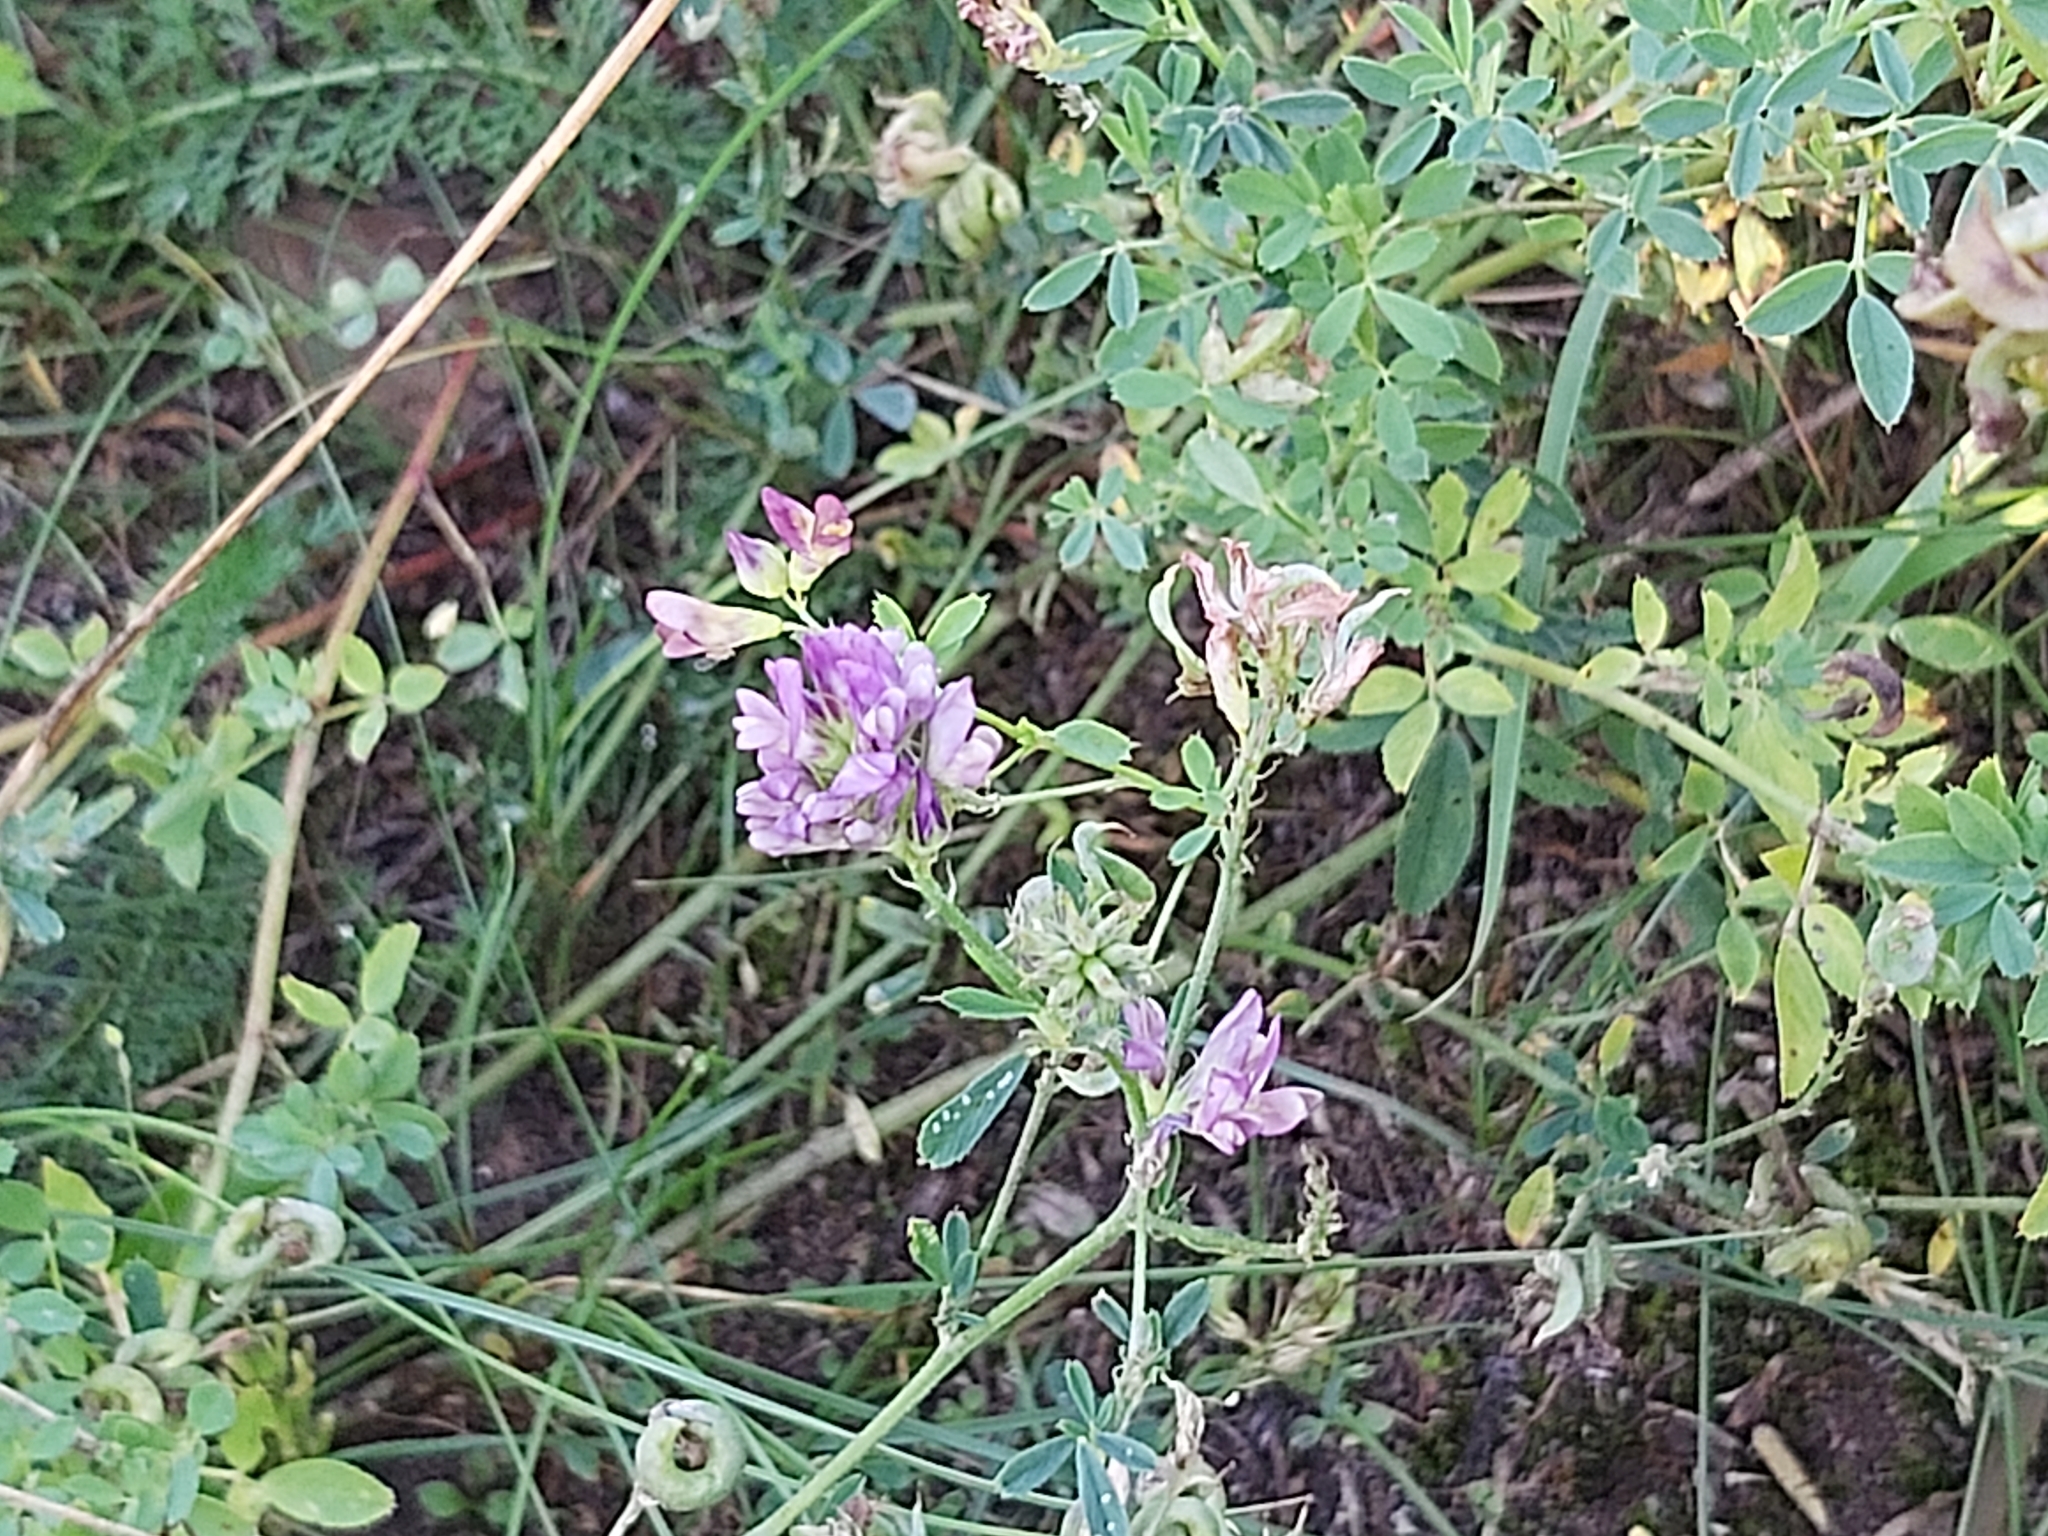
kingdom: Plantae
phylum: Tracheophyta
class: Magnoliopsida
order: Fabales
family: Fabaceae
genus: Medicago
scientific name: Medicago sativa
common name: Alfalfa
